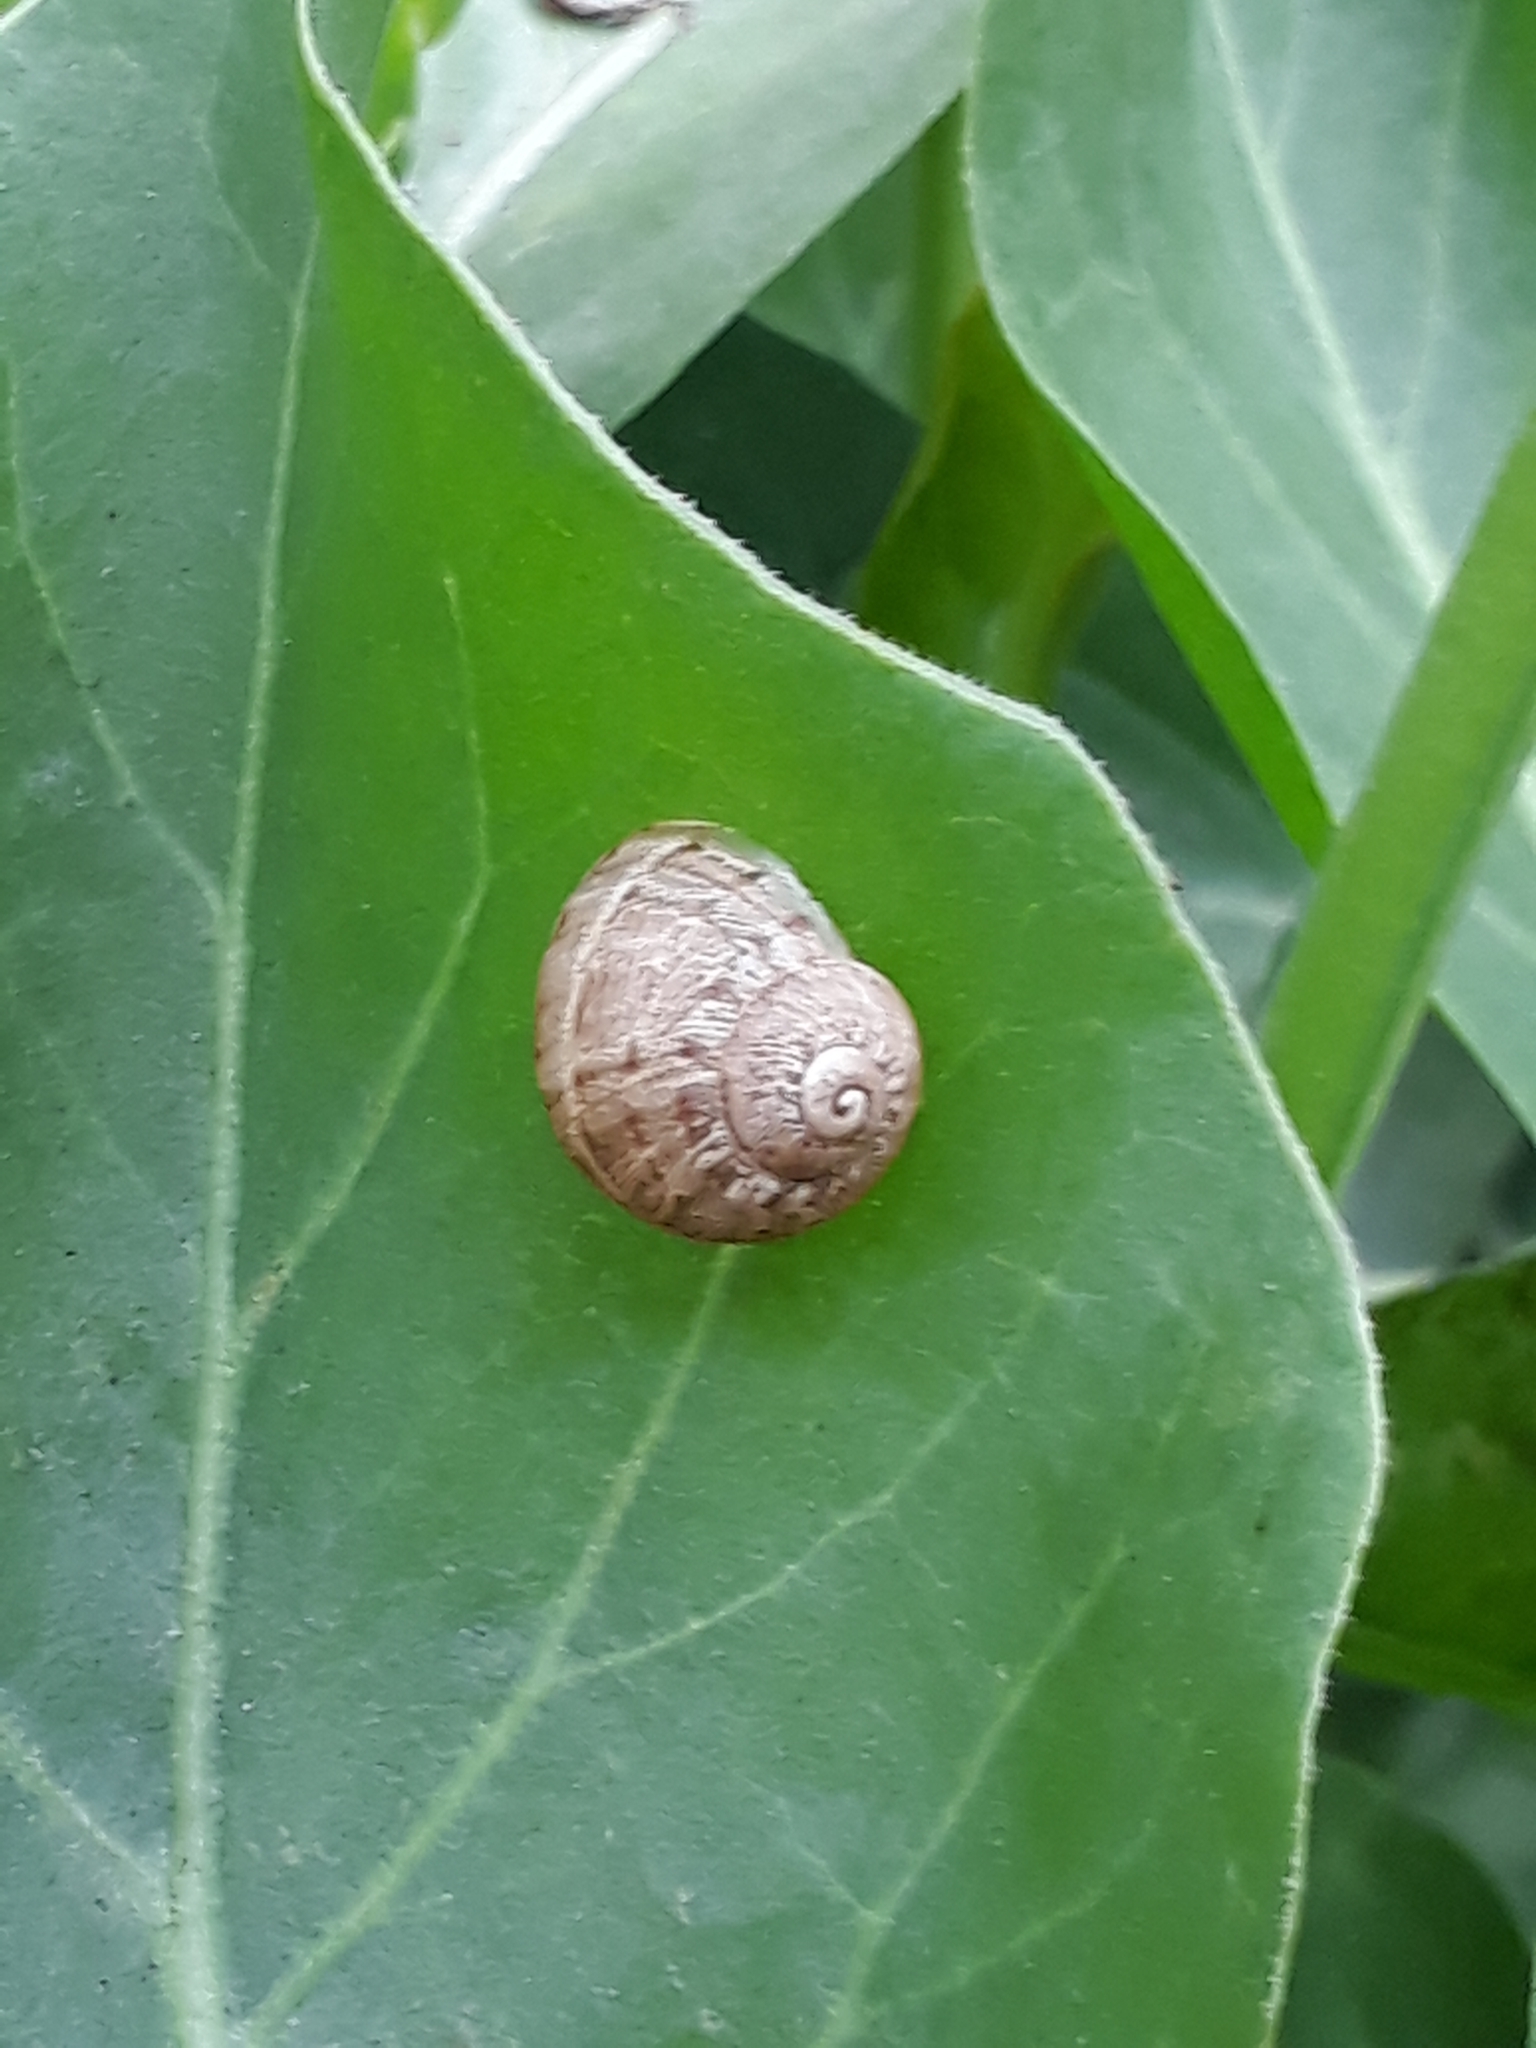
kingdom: Animalia
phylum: Mollusca
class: Gastropoda
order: Stylommatophora
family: Helicidae
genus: Cornu
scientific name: Cornu aspersum
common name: Brown garden snail
